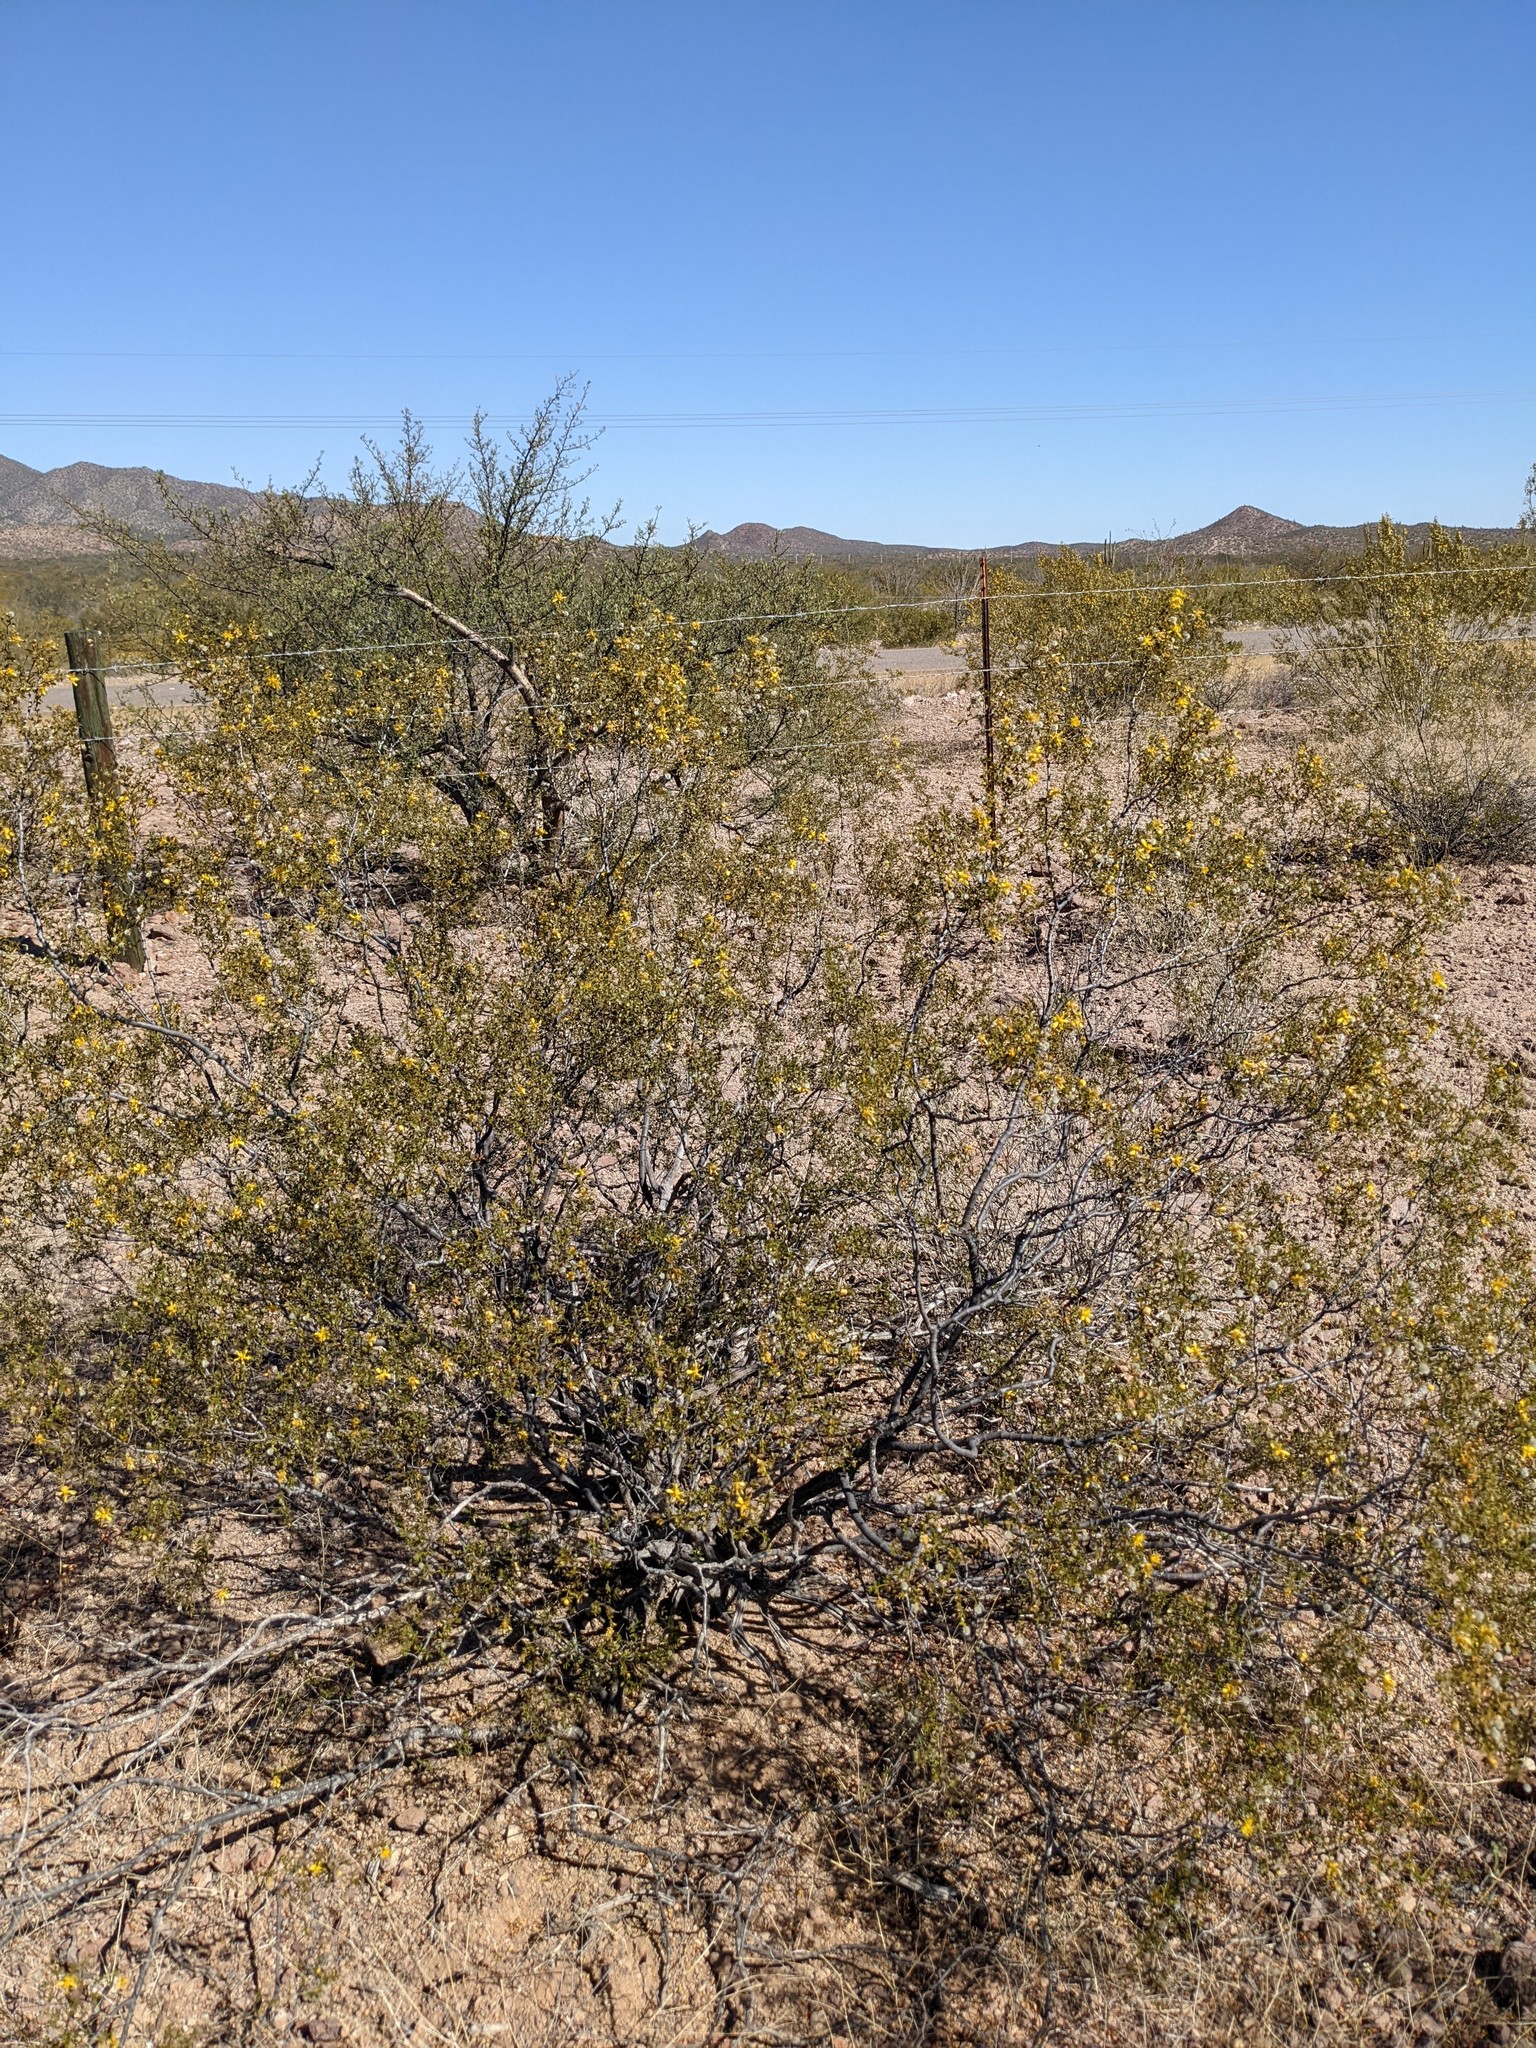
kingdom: Plantae
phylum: Tracheophyta
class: Magnoliopsida
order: Zygophyllales
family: Zygophyllaceae
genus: Larrea
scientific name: Larrea tridentata
